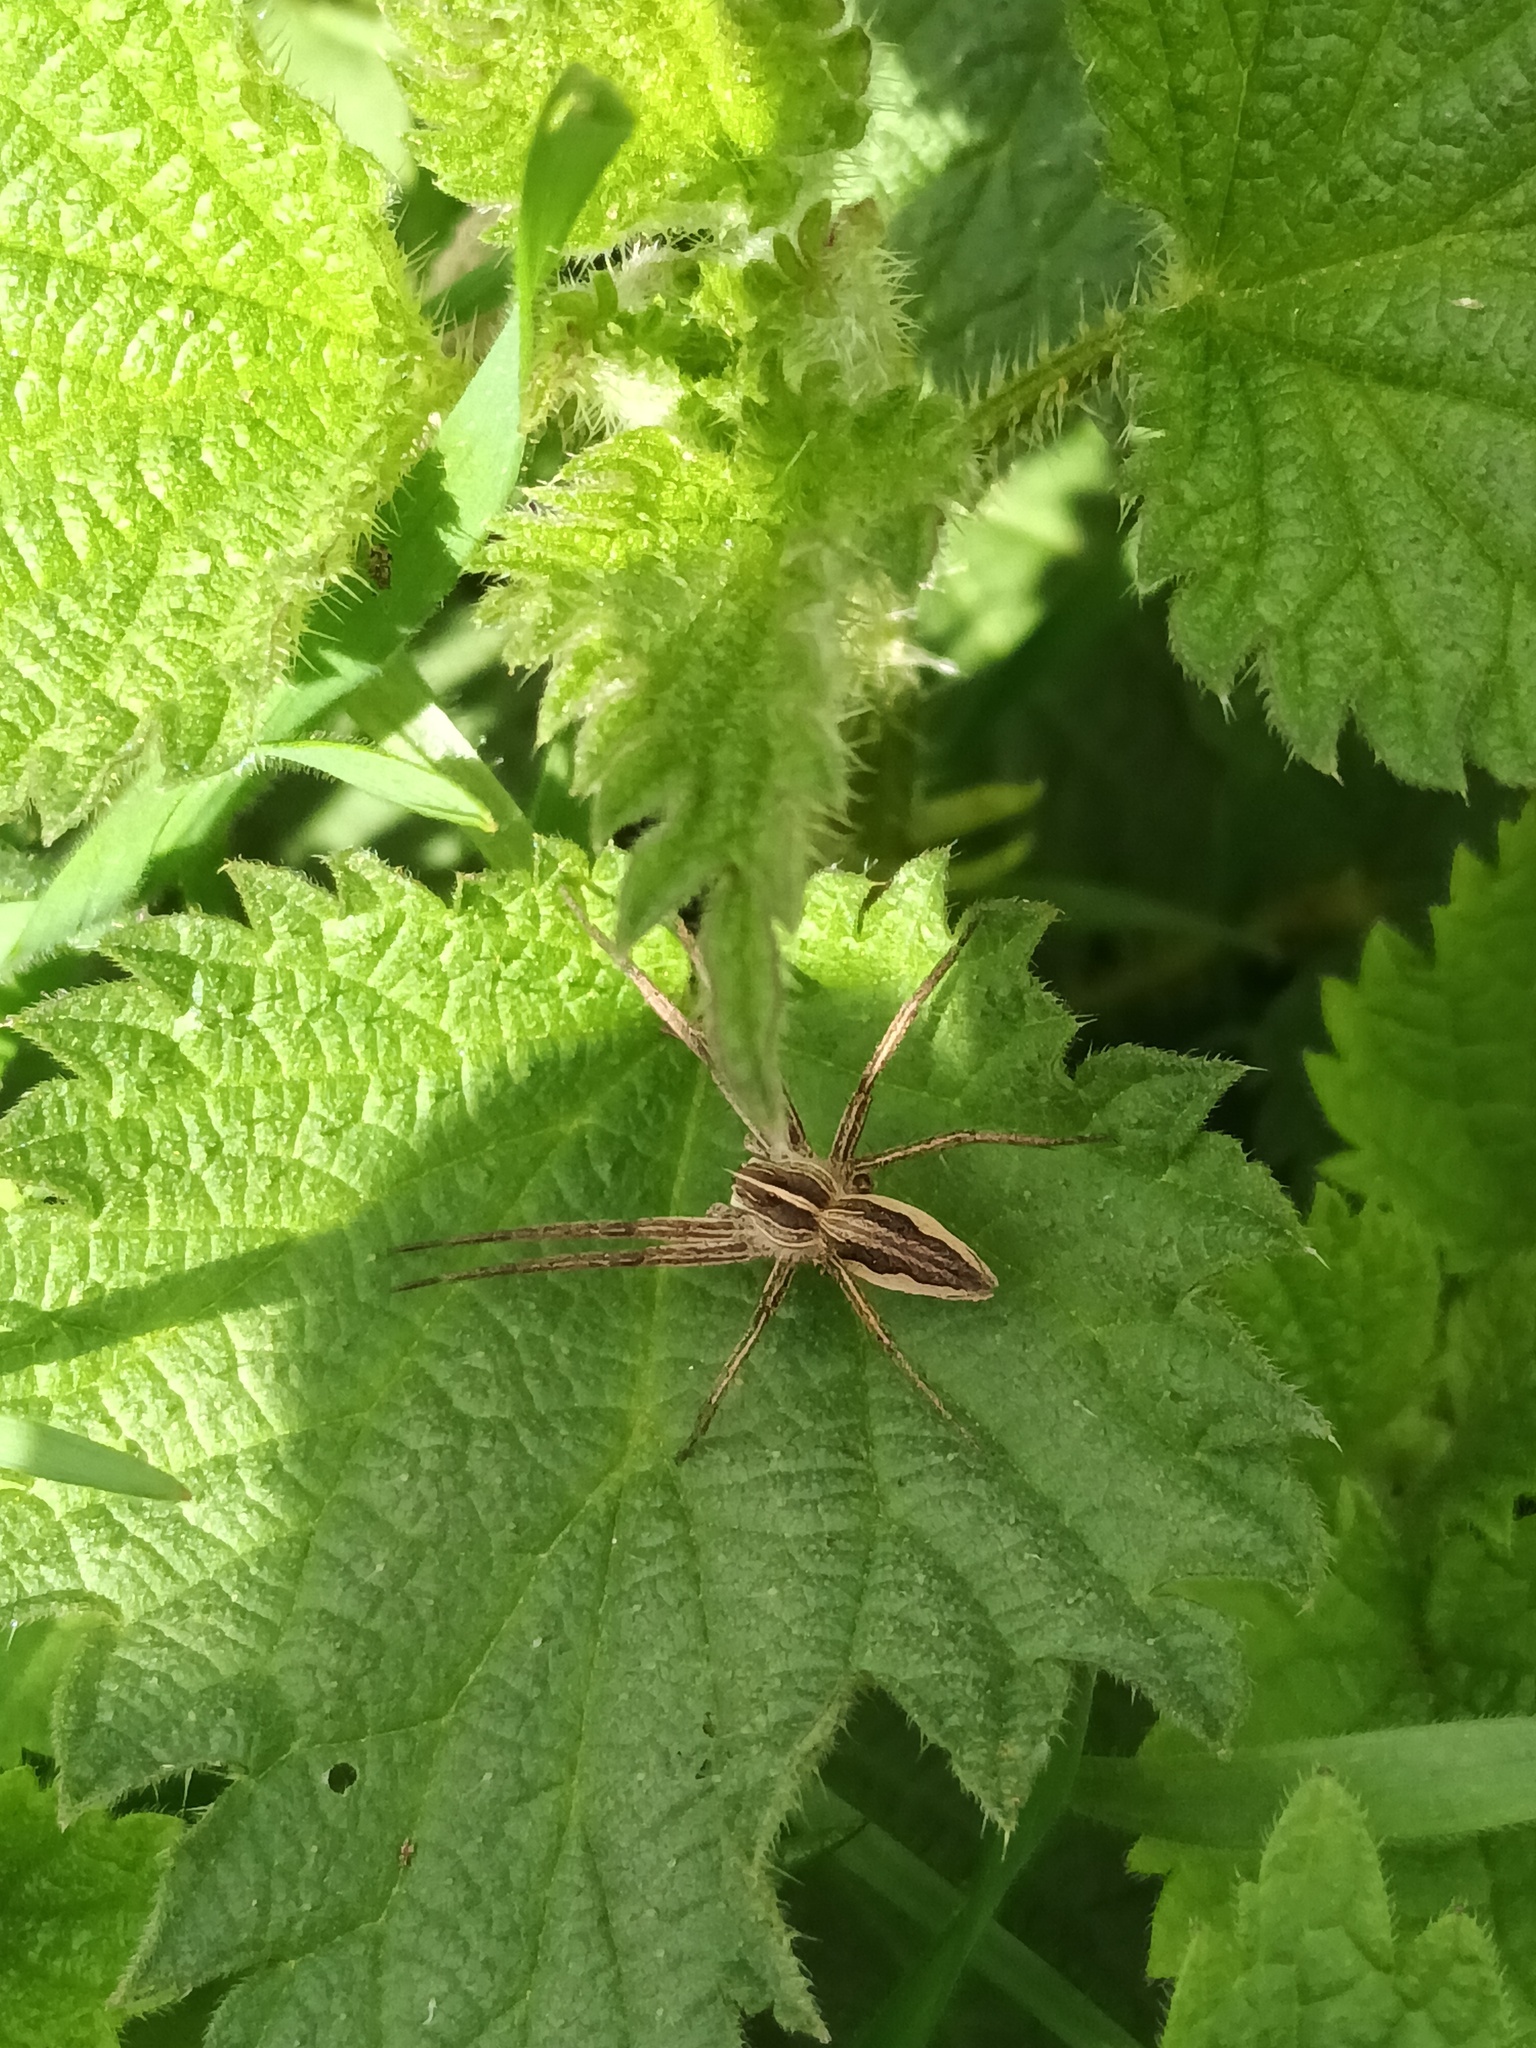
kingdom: Animalia
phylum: Arthropoda
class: Arachnida
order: Araneae
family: Pisauridae
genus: Pisaura
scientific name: Pisaura mirabilis
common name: Tent spider
